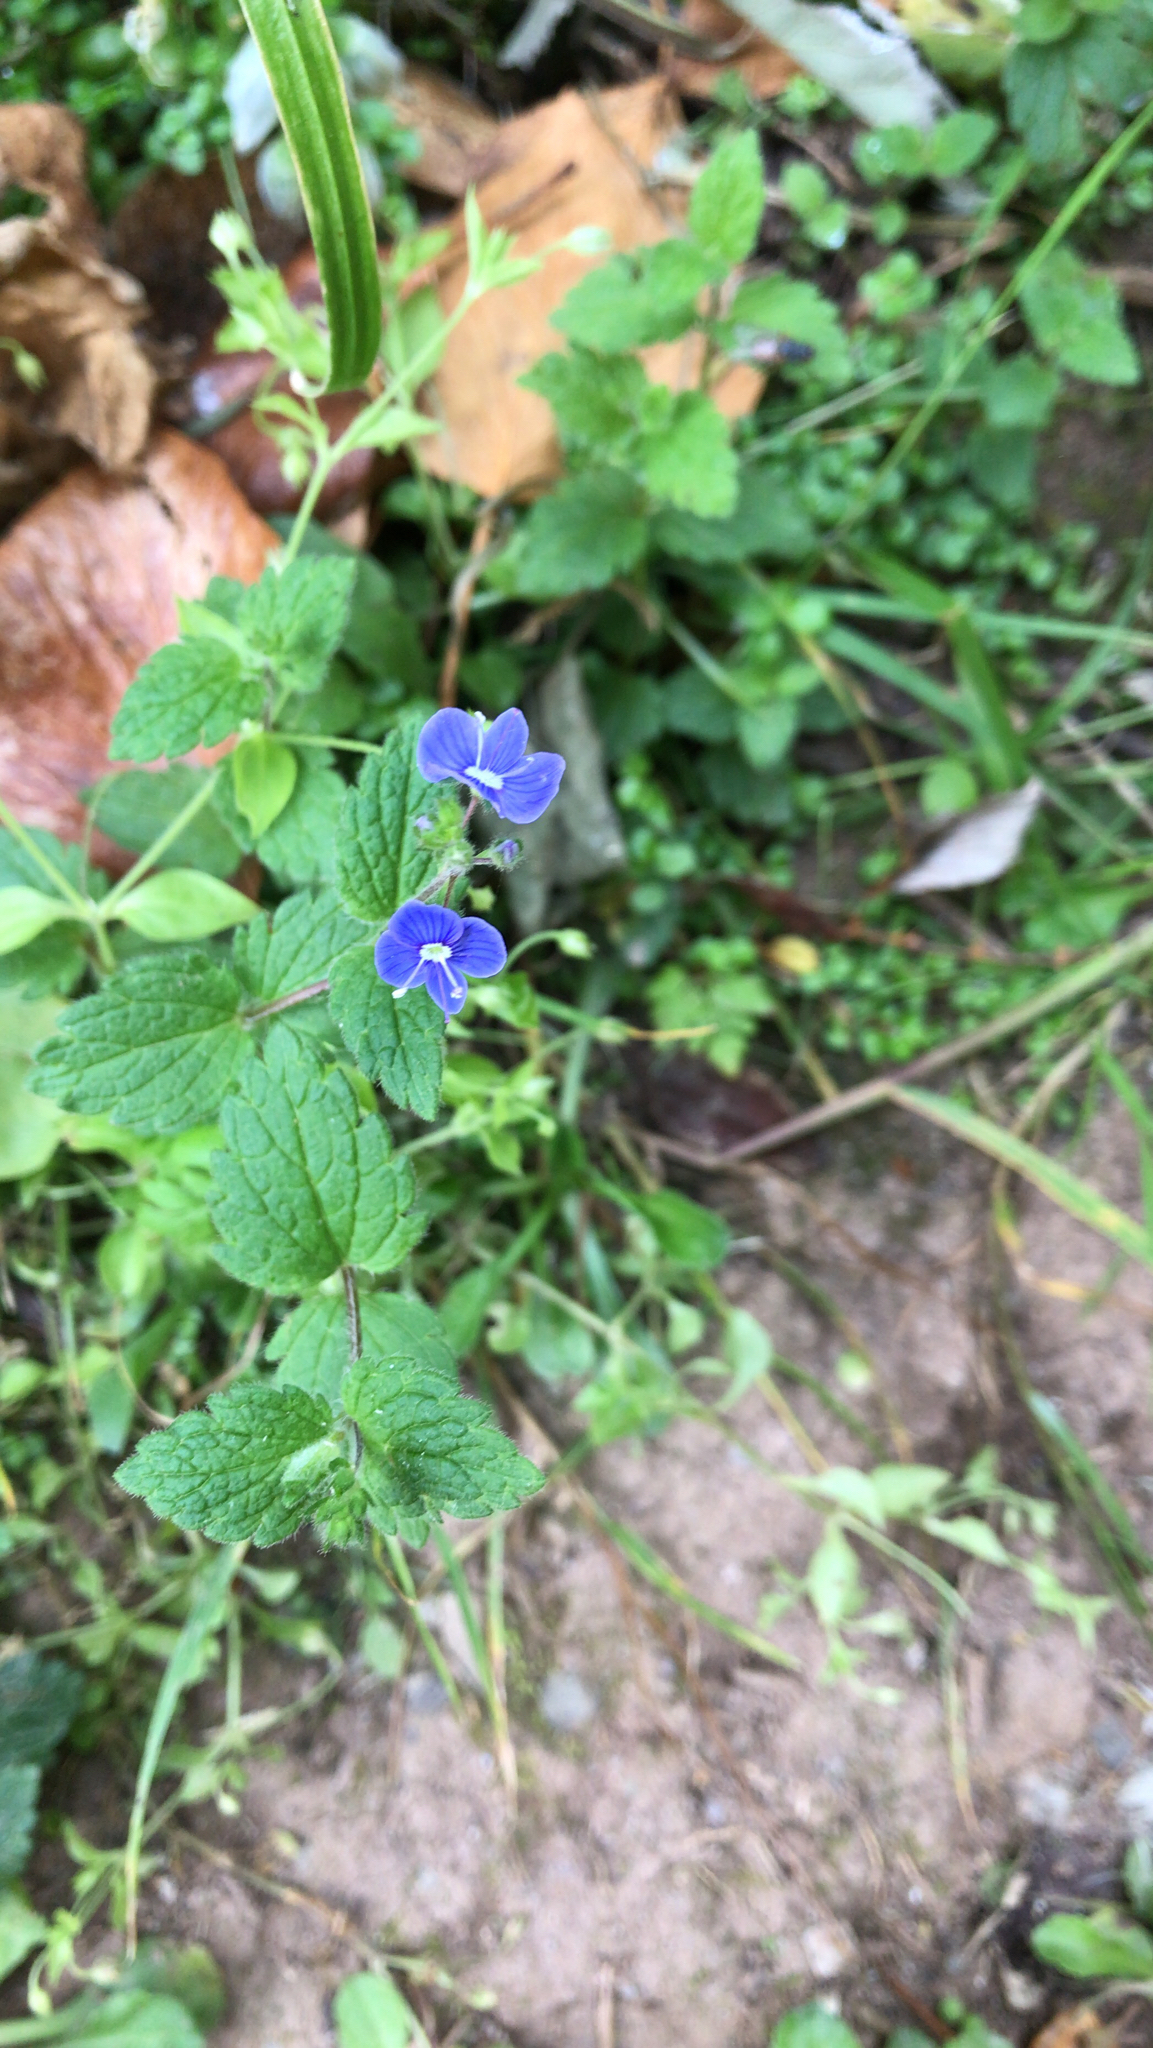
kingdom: Plantae
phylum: Tracheophyta
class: Magnoliopsida
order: Lamiales
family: Plantaginaceae
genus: Veronica
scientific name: Veronica chamaedrys
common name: Germander speedwell
